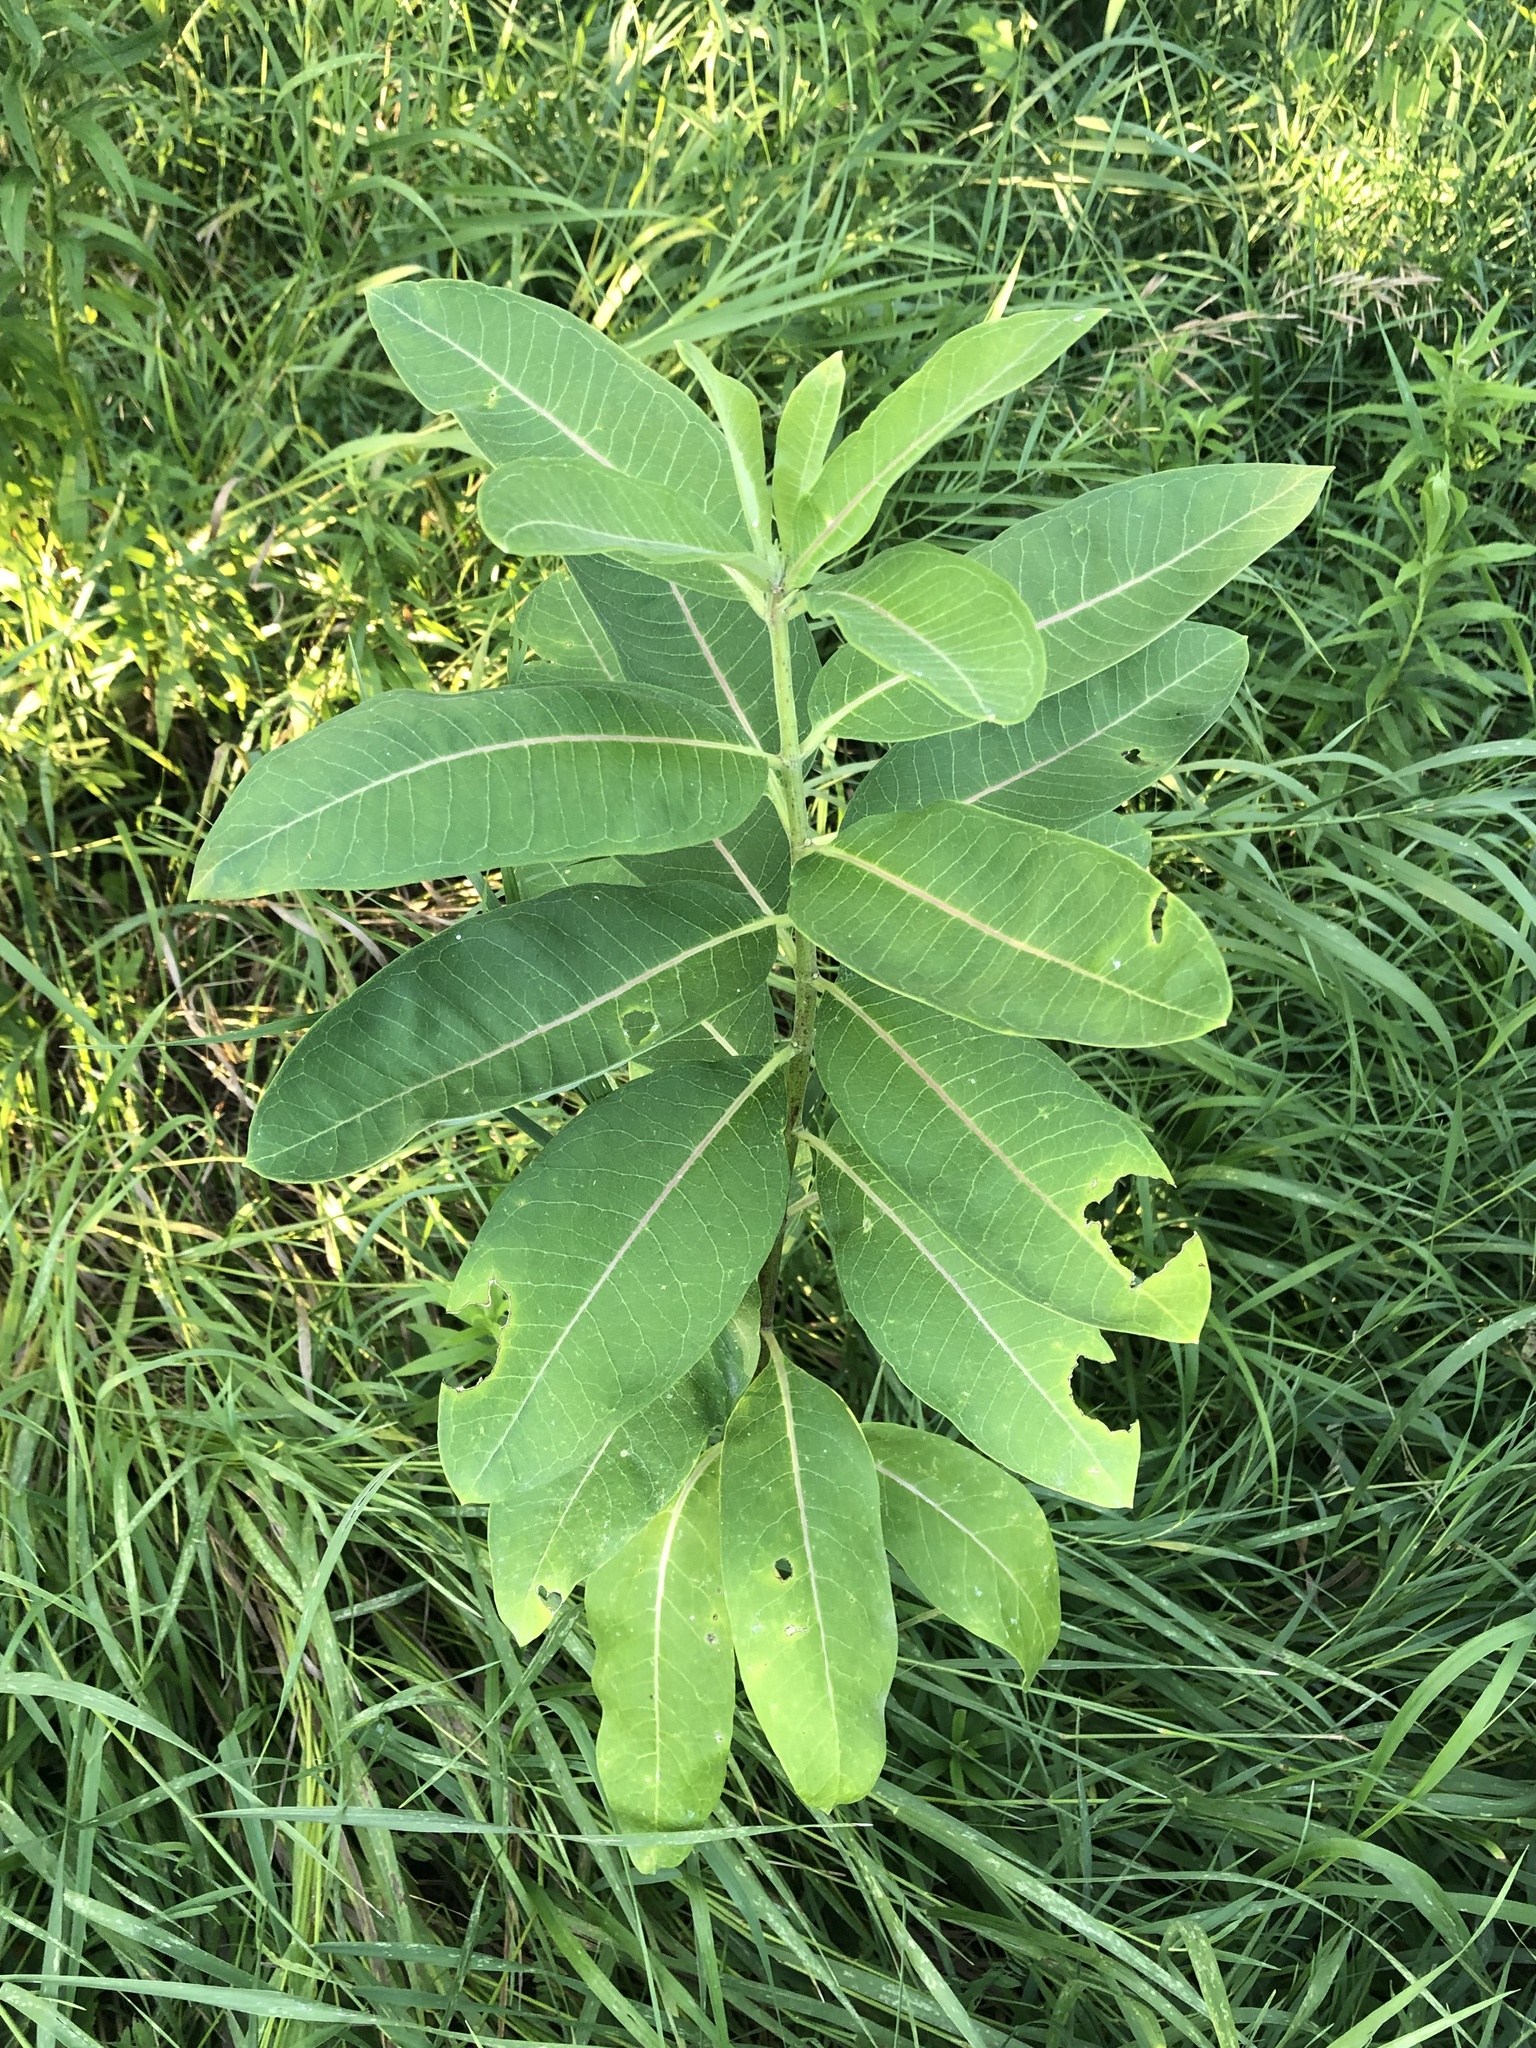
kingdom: Plantae
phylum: Tracheophyta
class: Magnoliopsida
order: Gentianales
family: Apocynaceae
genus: Asclepias
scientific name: Asclepias syriaca
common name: Common milkweed
